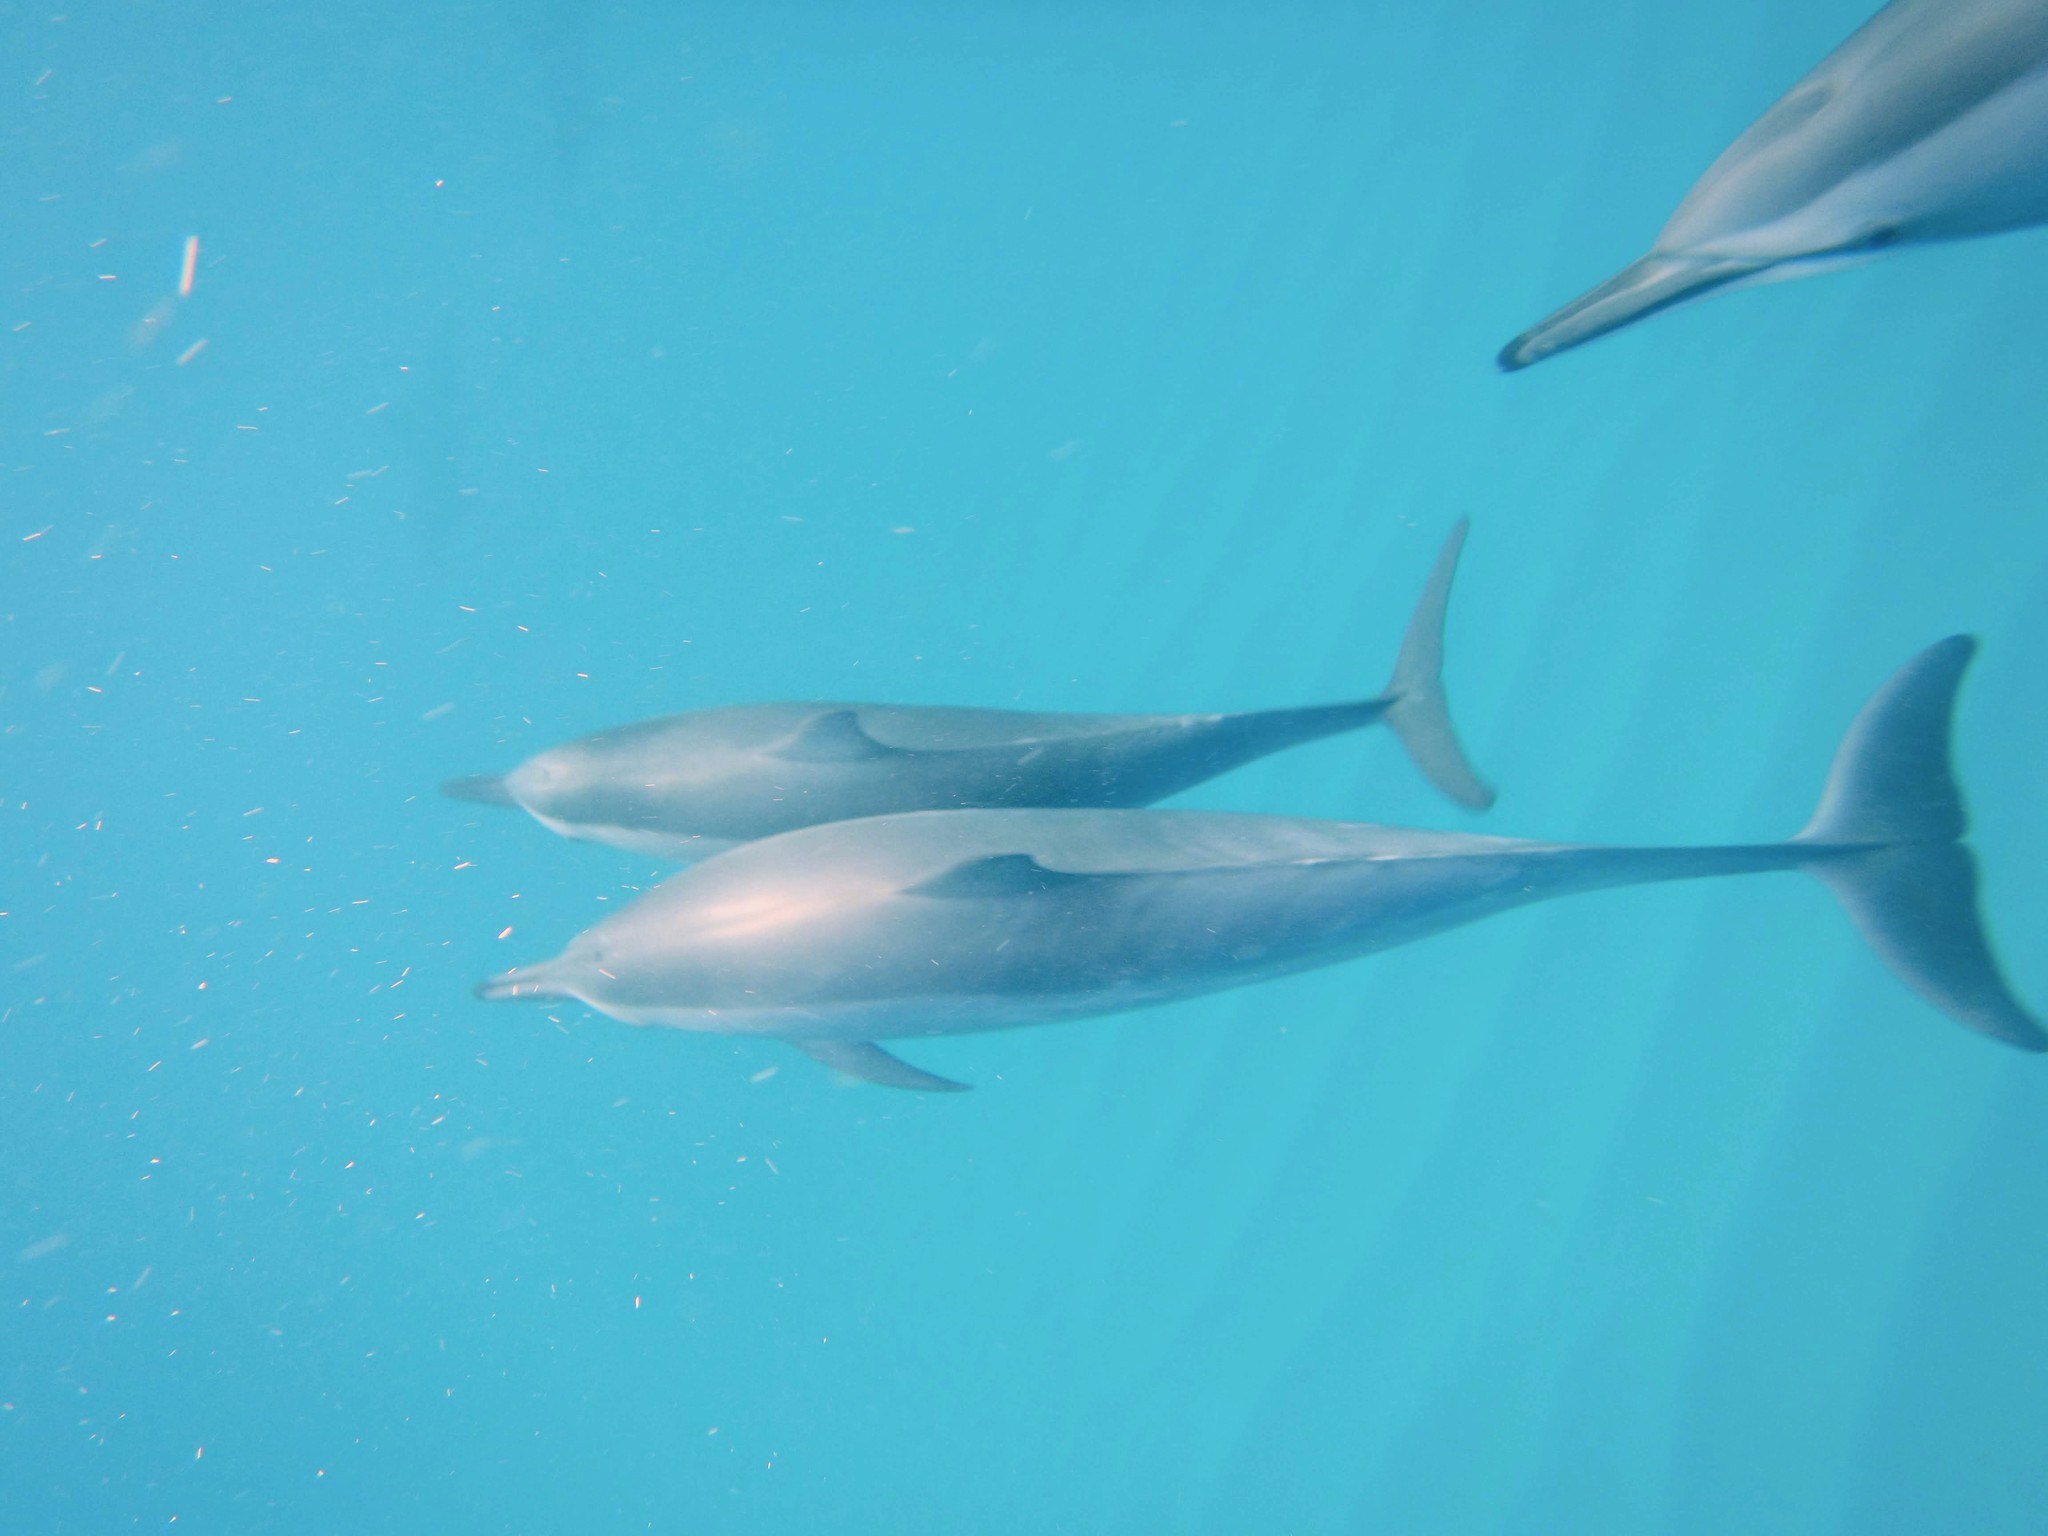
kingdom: Animalia
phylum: Chordata
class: Mammalia
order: Cetacea
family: Delphinidae
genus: Stenella
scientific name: Stenella longirostris
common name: Spinner dolphin
